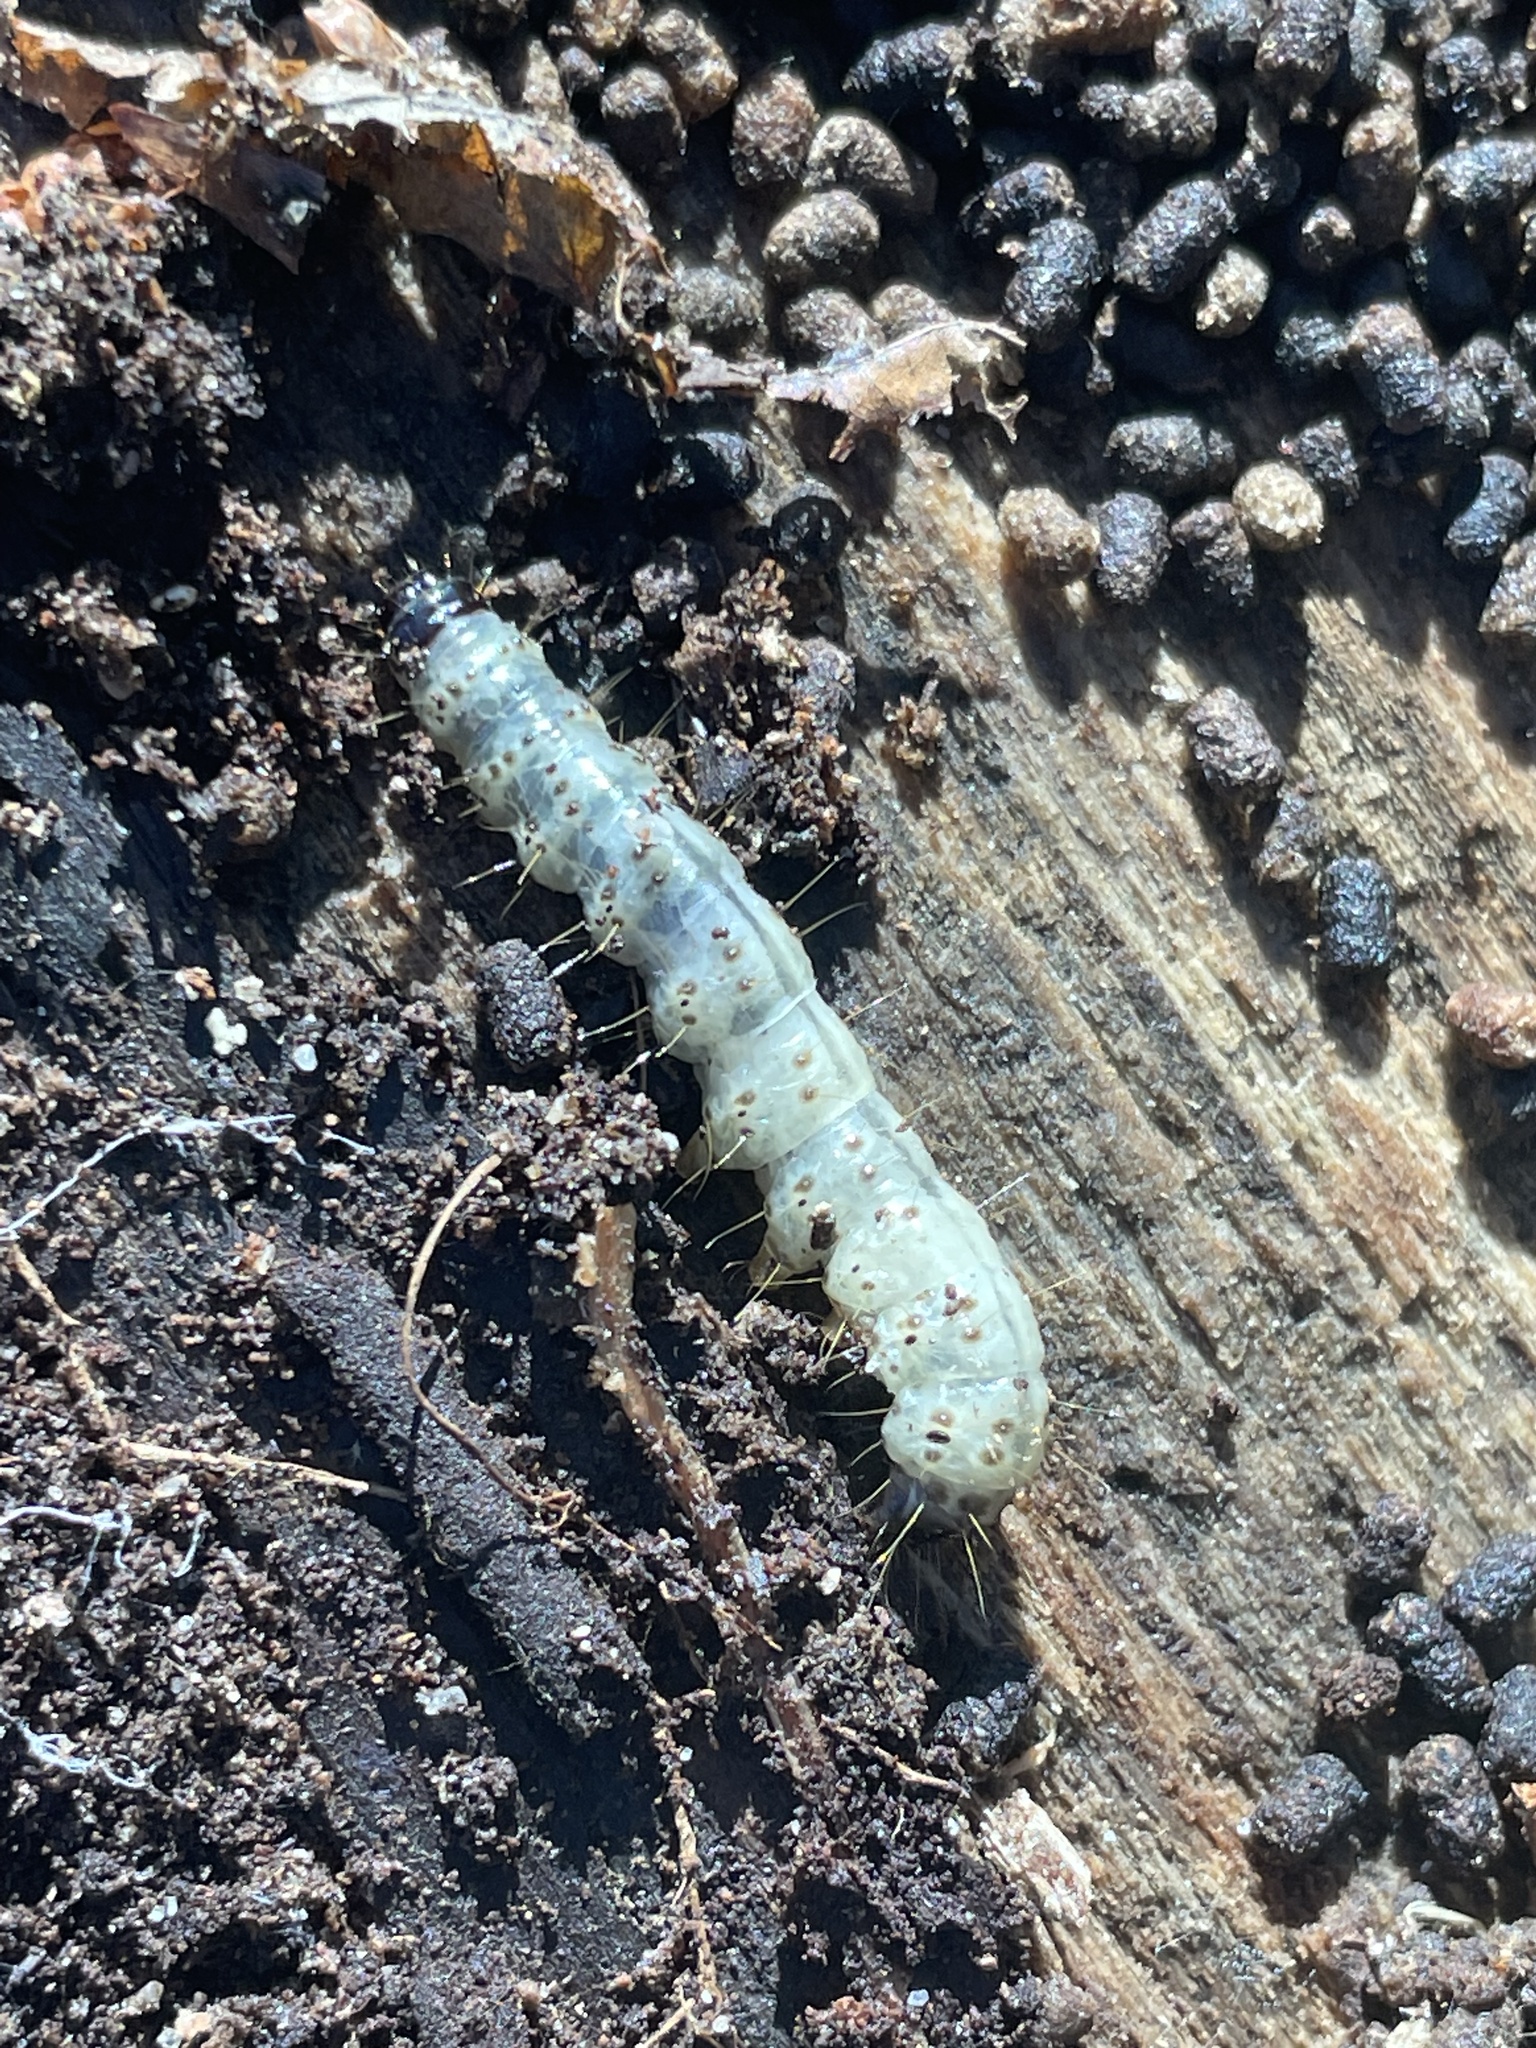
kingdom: Animalia
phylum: Arthropoda
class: Insecta
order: Lepidoptera
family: Erebidae
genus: Scolecocampa
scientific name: Scolecocampa liburna
